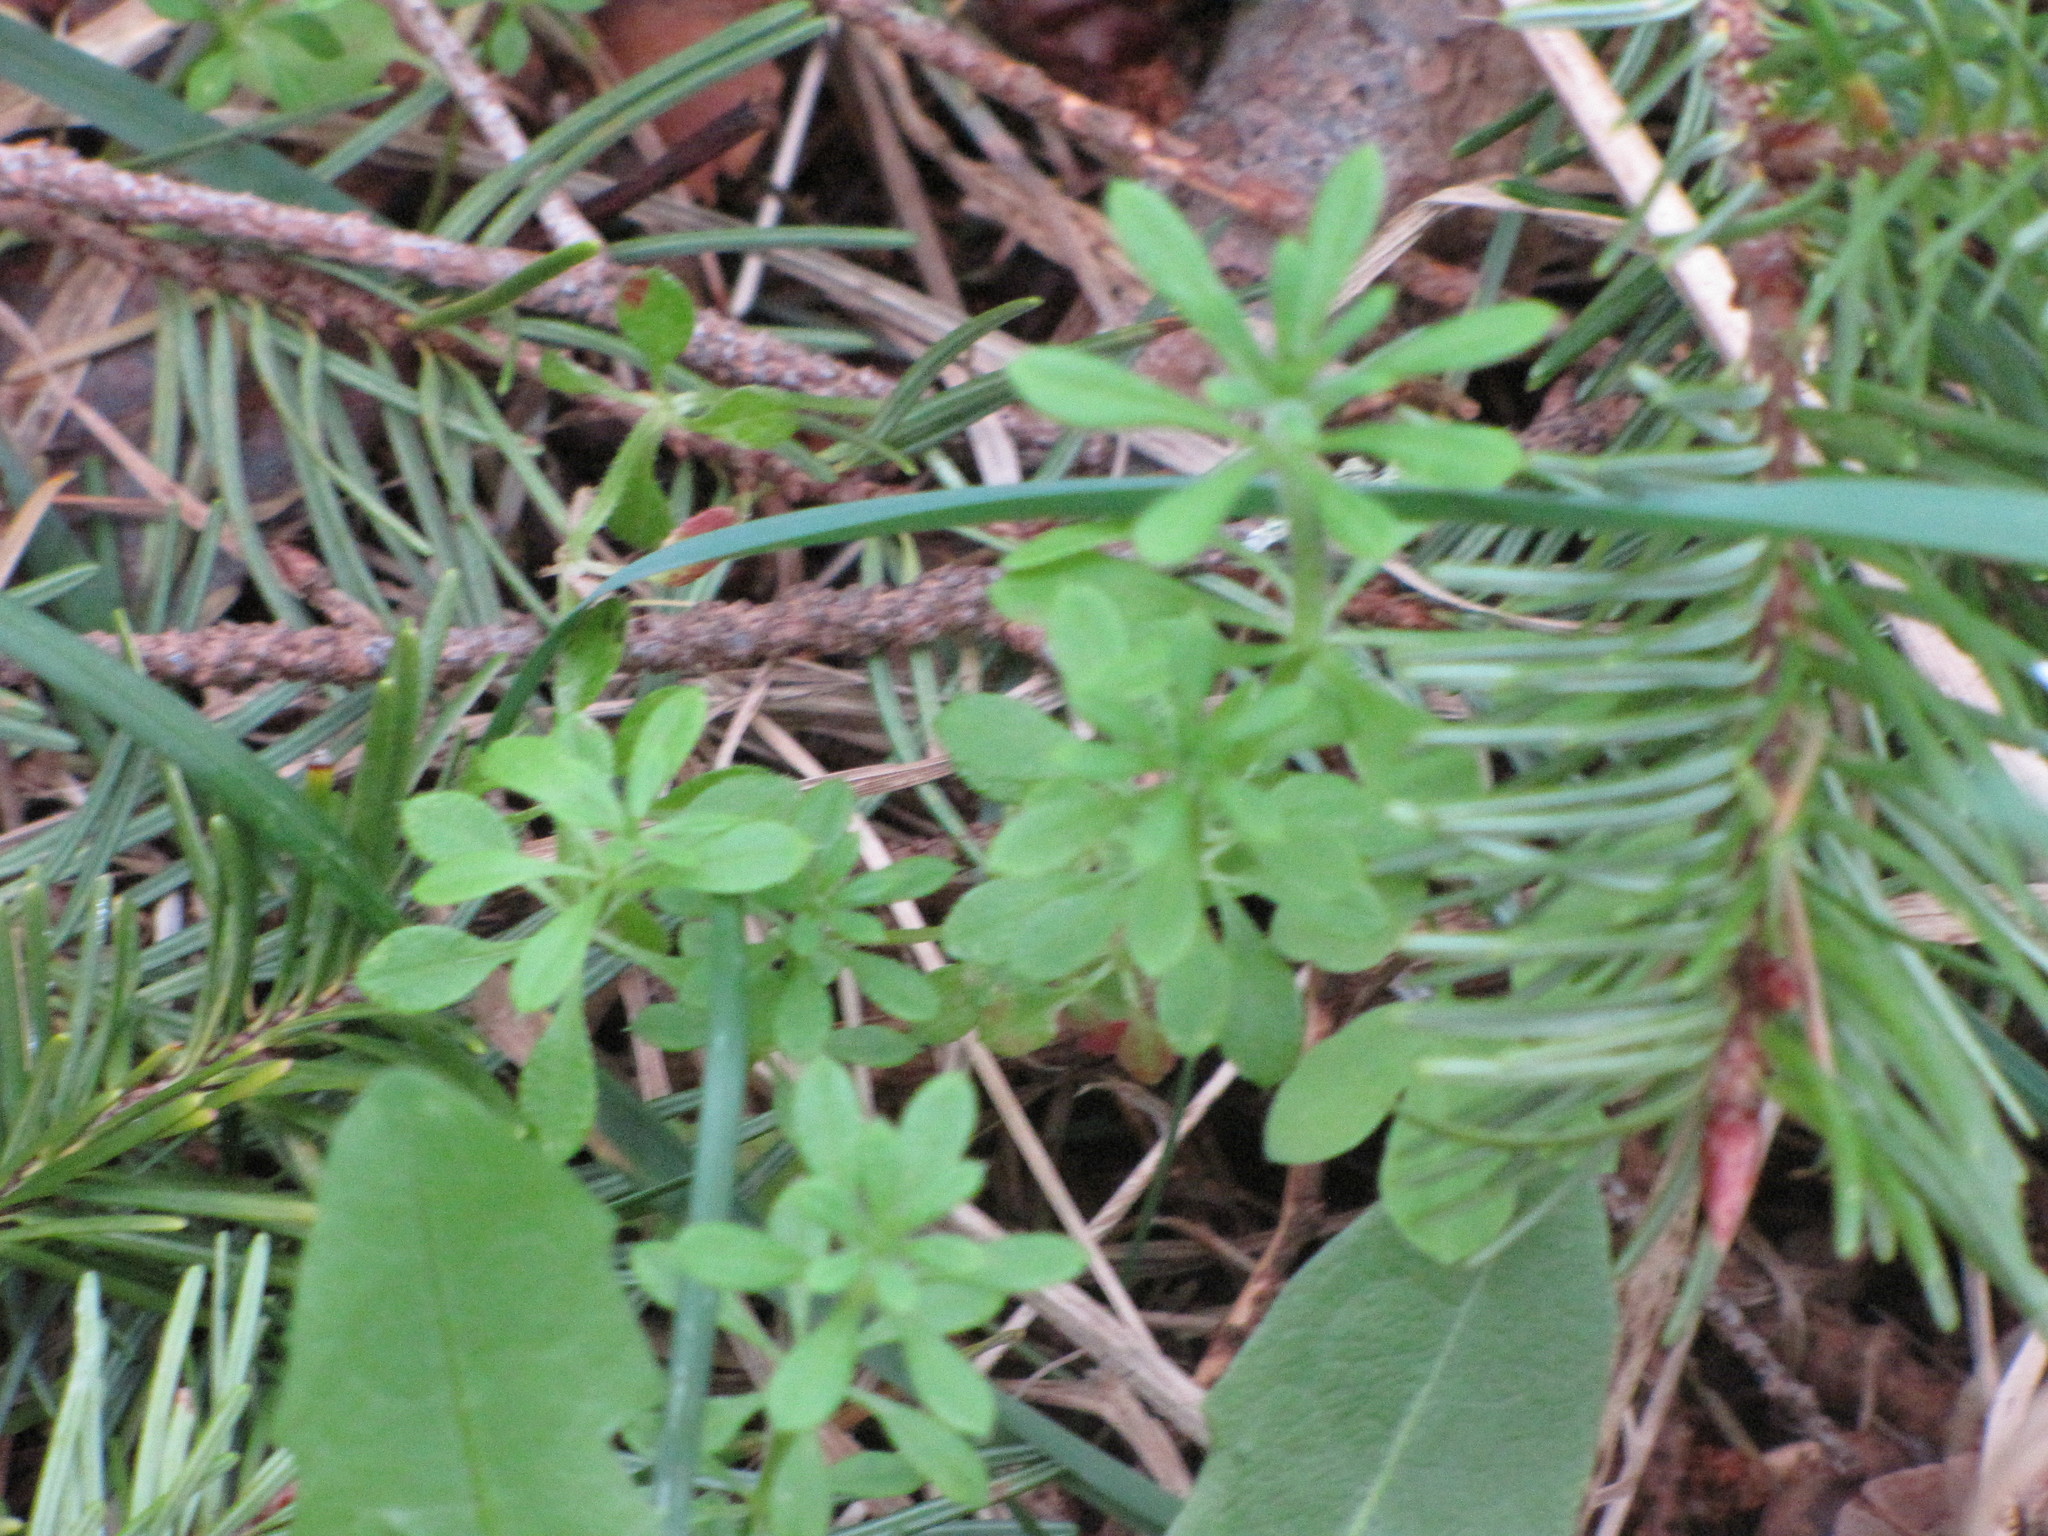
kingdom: Plantae
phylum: Tracheophyta
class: Magnoliopsida
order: Gentianales
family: Rubiaceae
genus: Galium
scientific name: Galium aparine
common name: Cleavers
